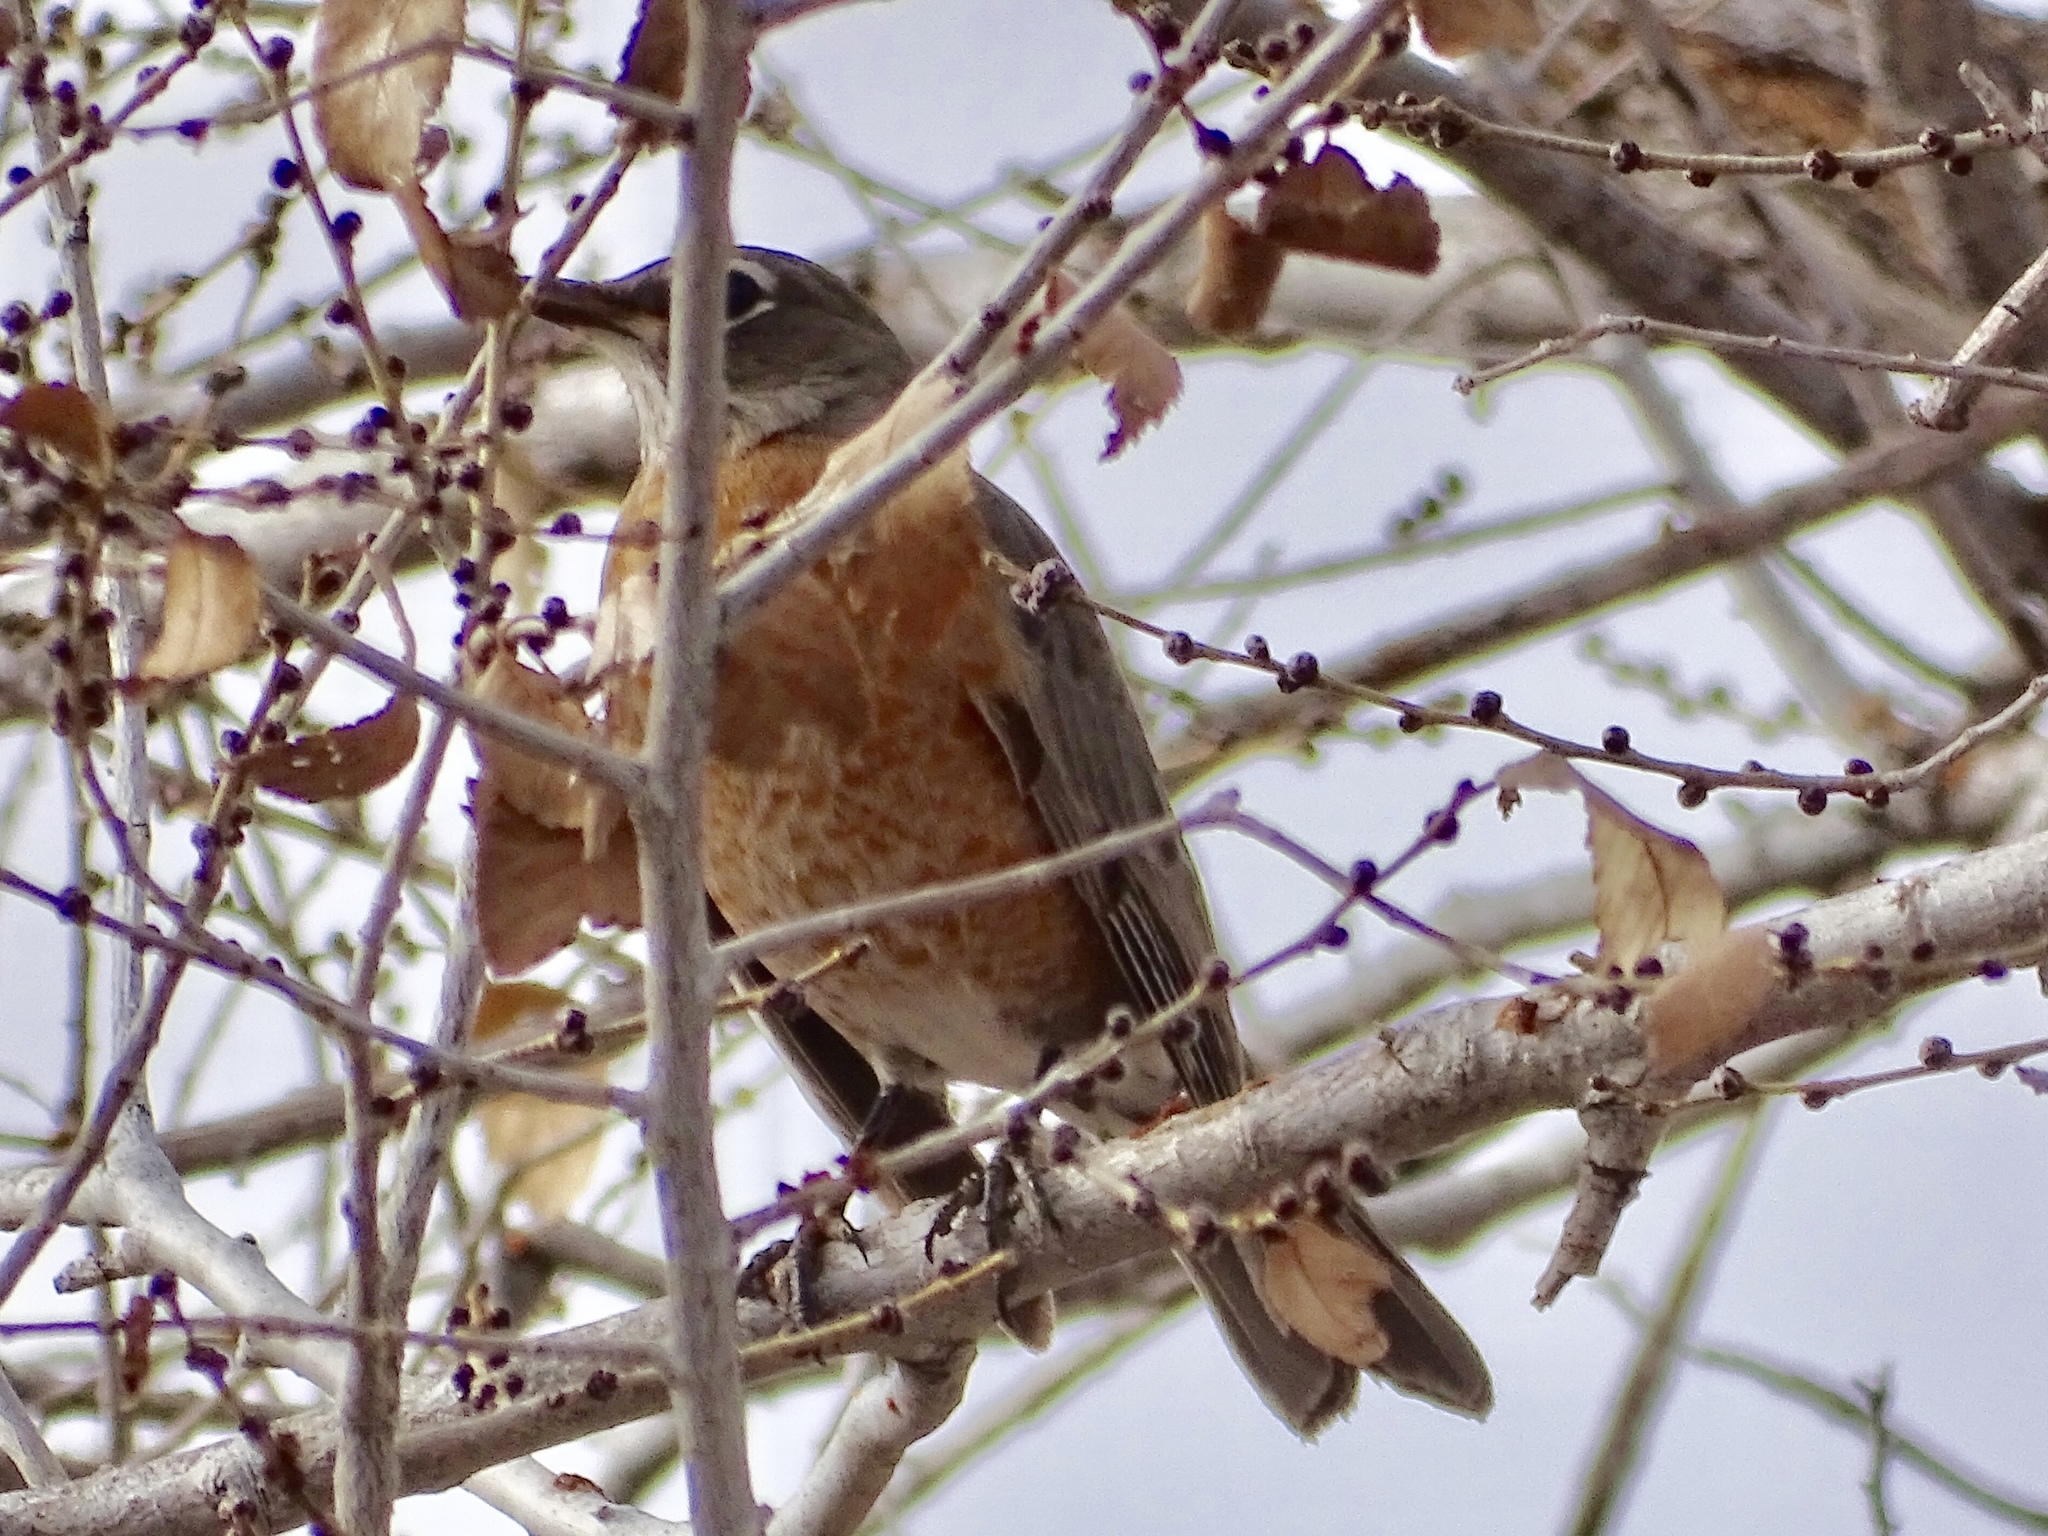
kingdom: Animalia
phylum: Chordata
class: Aves
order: Passeriformes
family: Turdidae
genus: Turdus
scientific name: Turdus migratorius
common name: American robin
